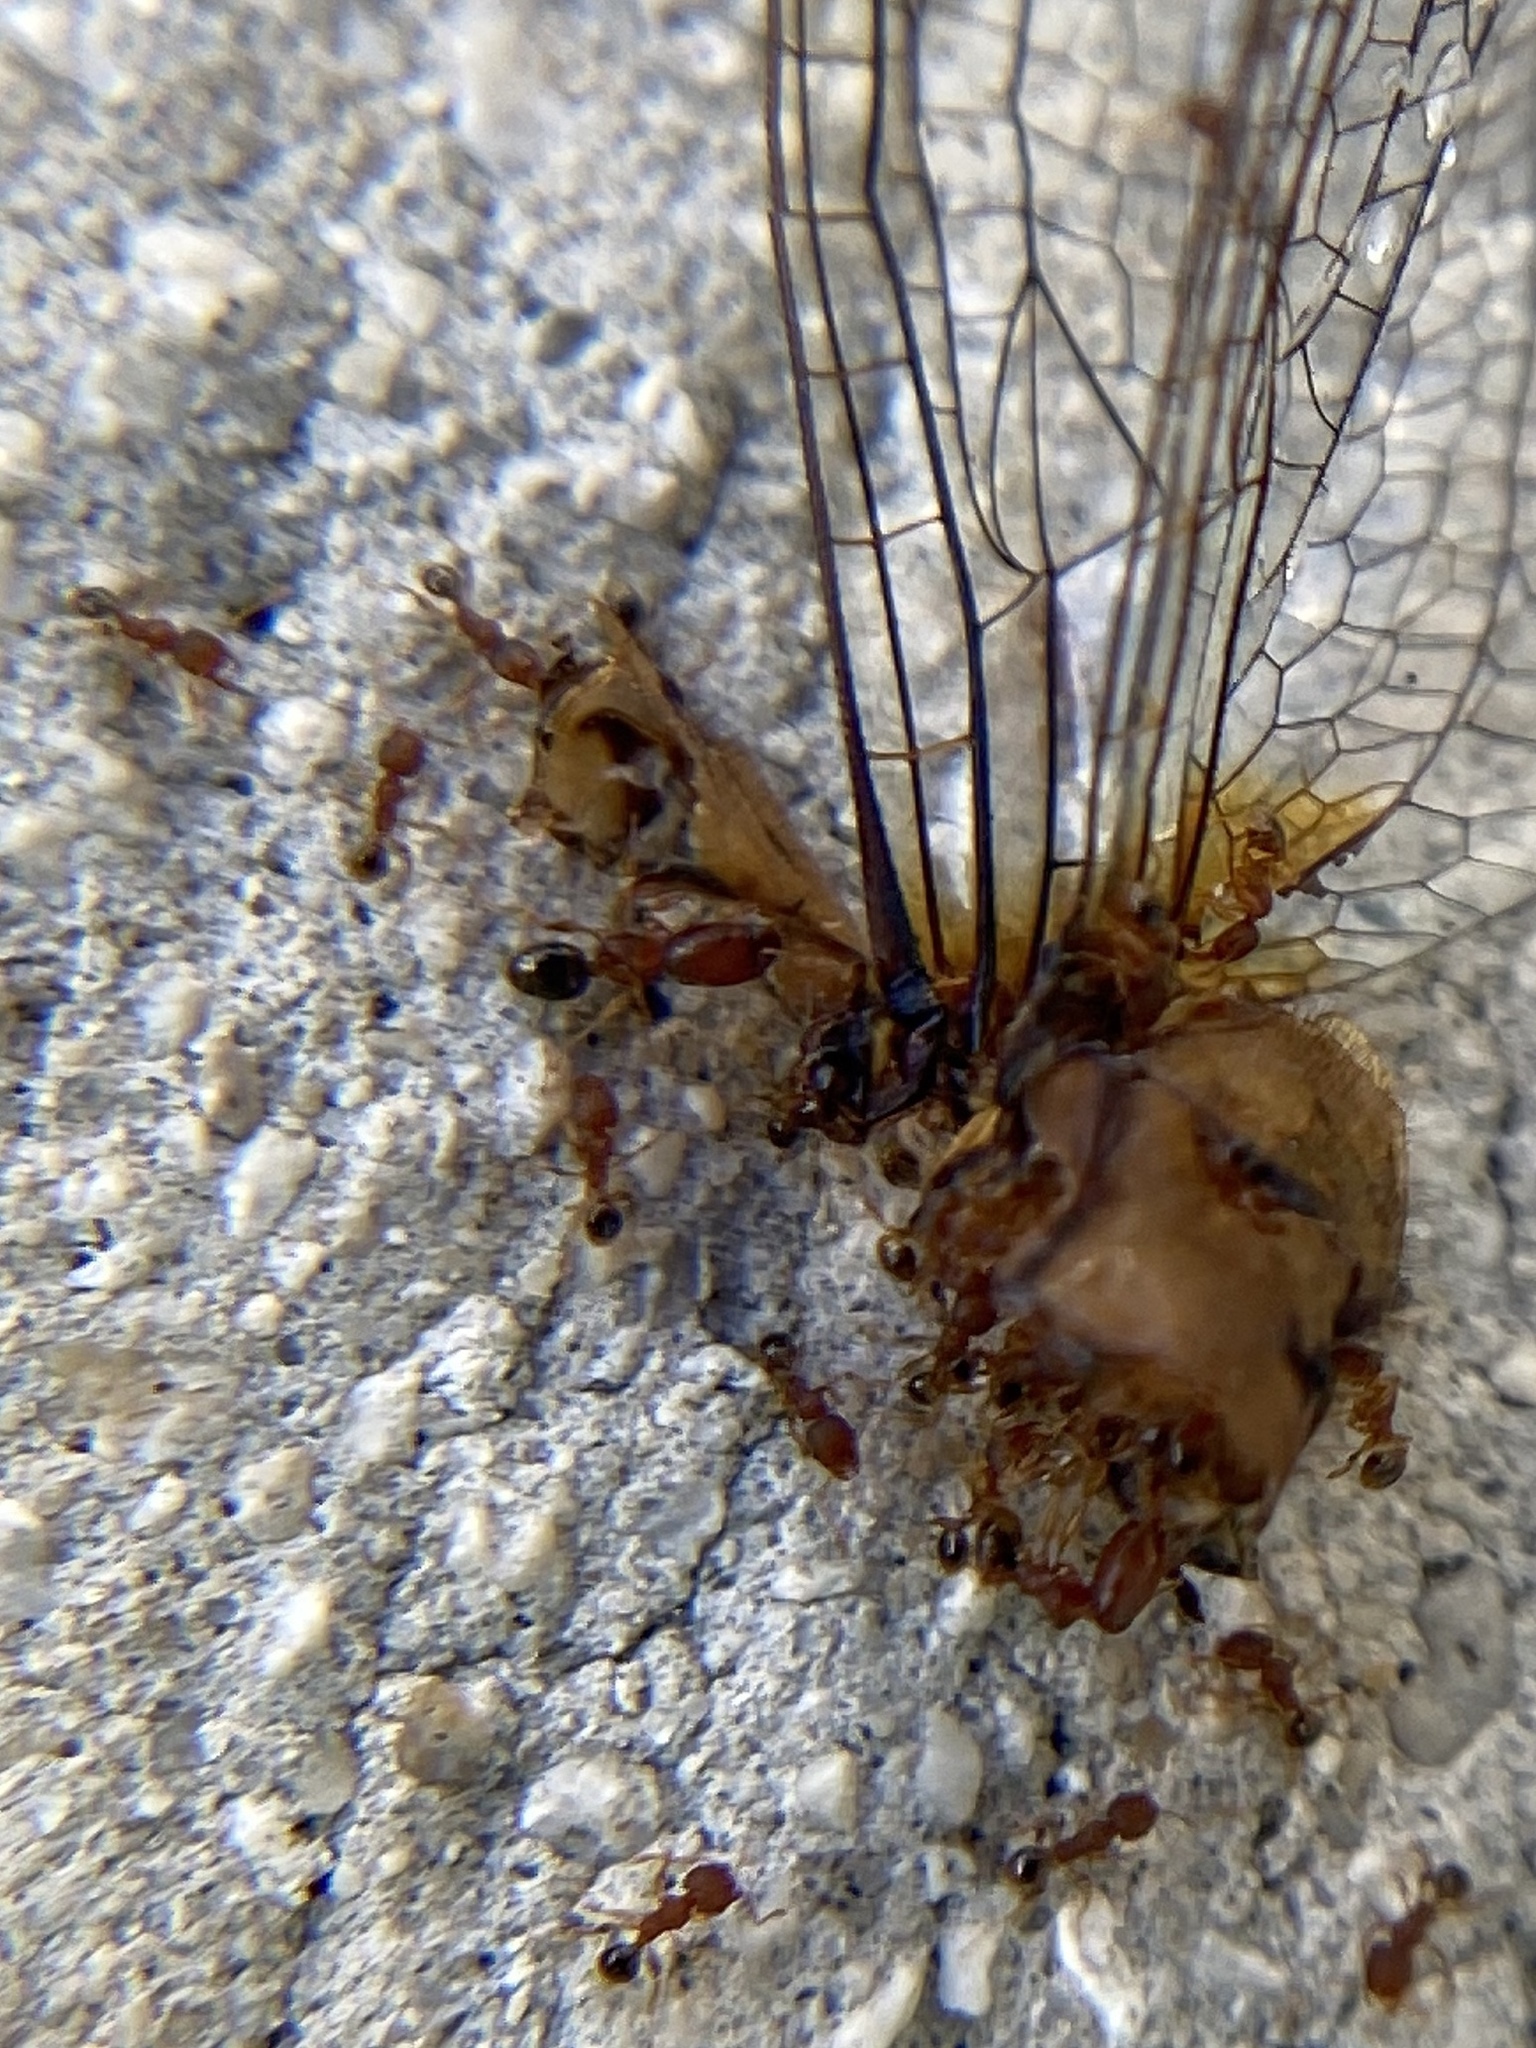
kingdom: Animalia
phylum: Arthropoda
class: Insecta
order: Hymenoptera
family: Formicidae
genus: Pheidole
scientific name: Pheidole parva
